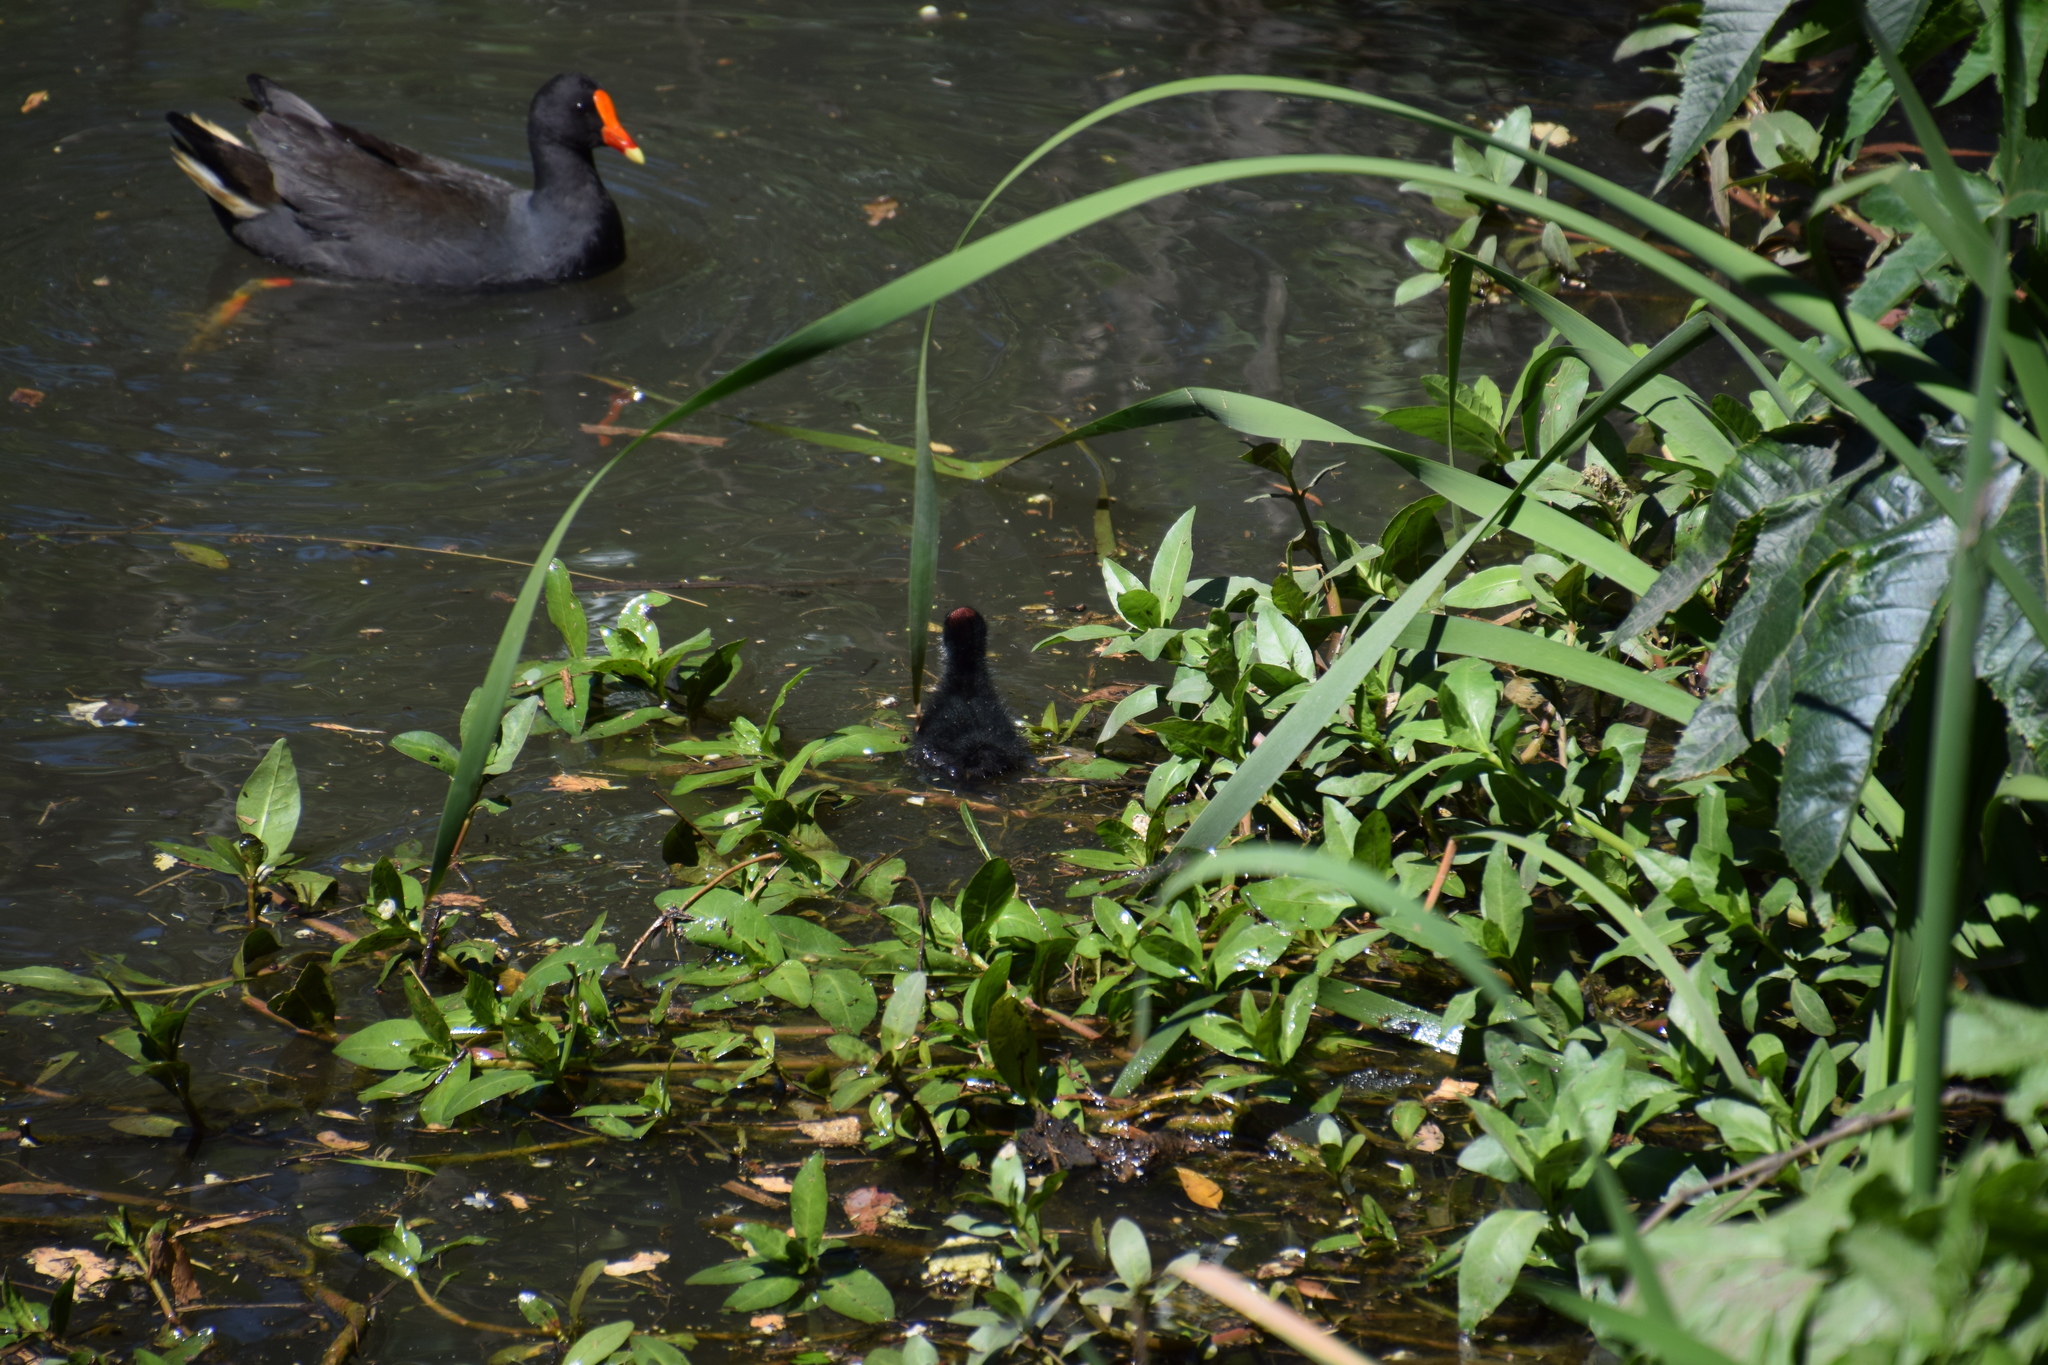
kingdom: Animalia
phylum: Chordata
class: Aves
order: Gruiformes
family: Rallidae
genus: Gallinula
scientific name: Gallinula tenebrosa
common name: Dusky moorhen
